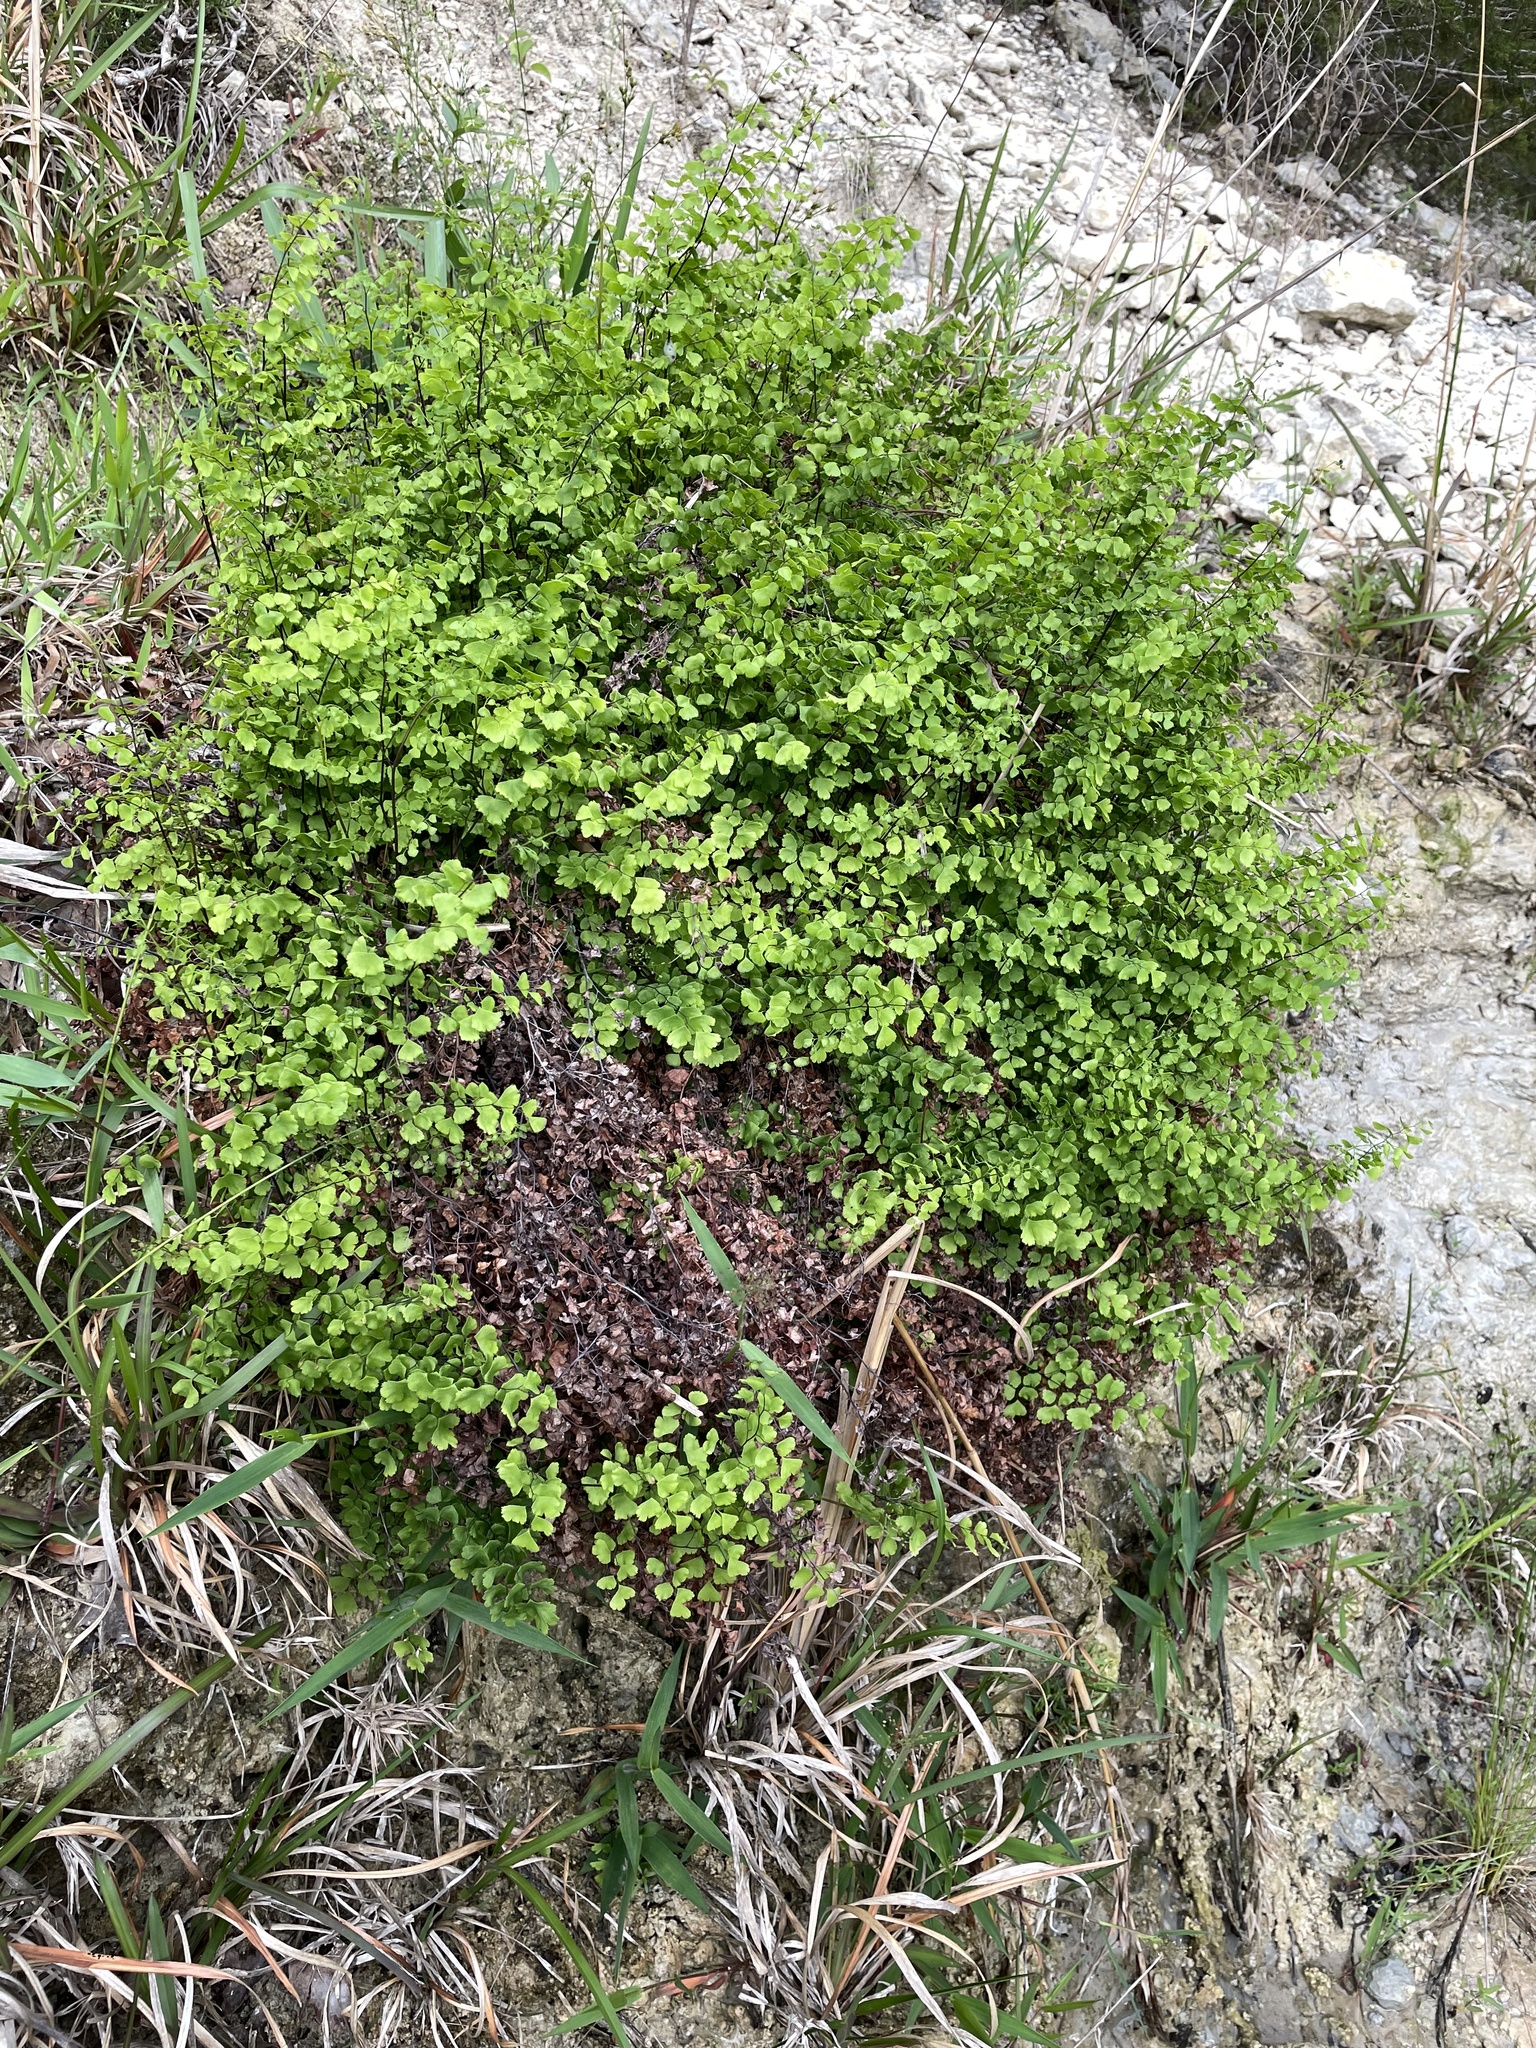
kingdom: Plantae
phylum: Tracheophyta
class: Polypodiopsida
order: Polypodiales
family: Pteridaceae
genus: Adiantum
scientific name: Adiantum capillus-veneris
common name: Maidenhair fern
